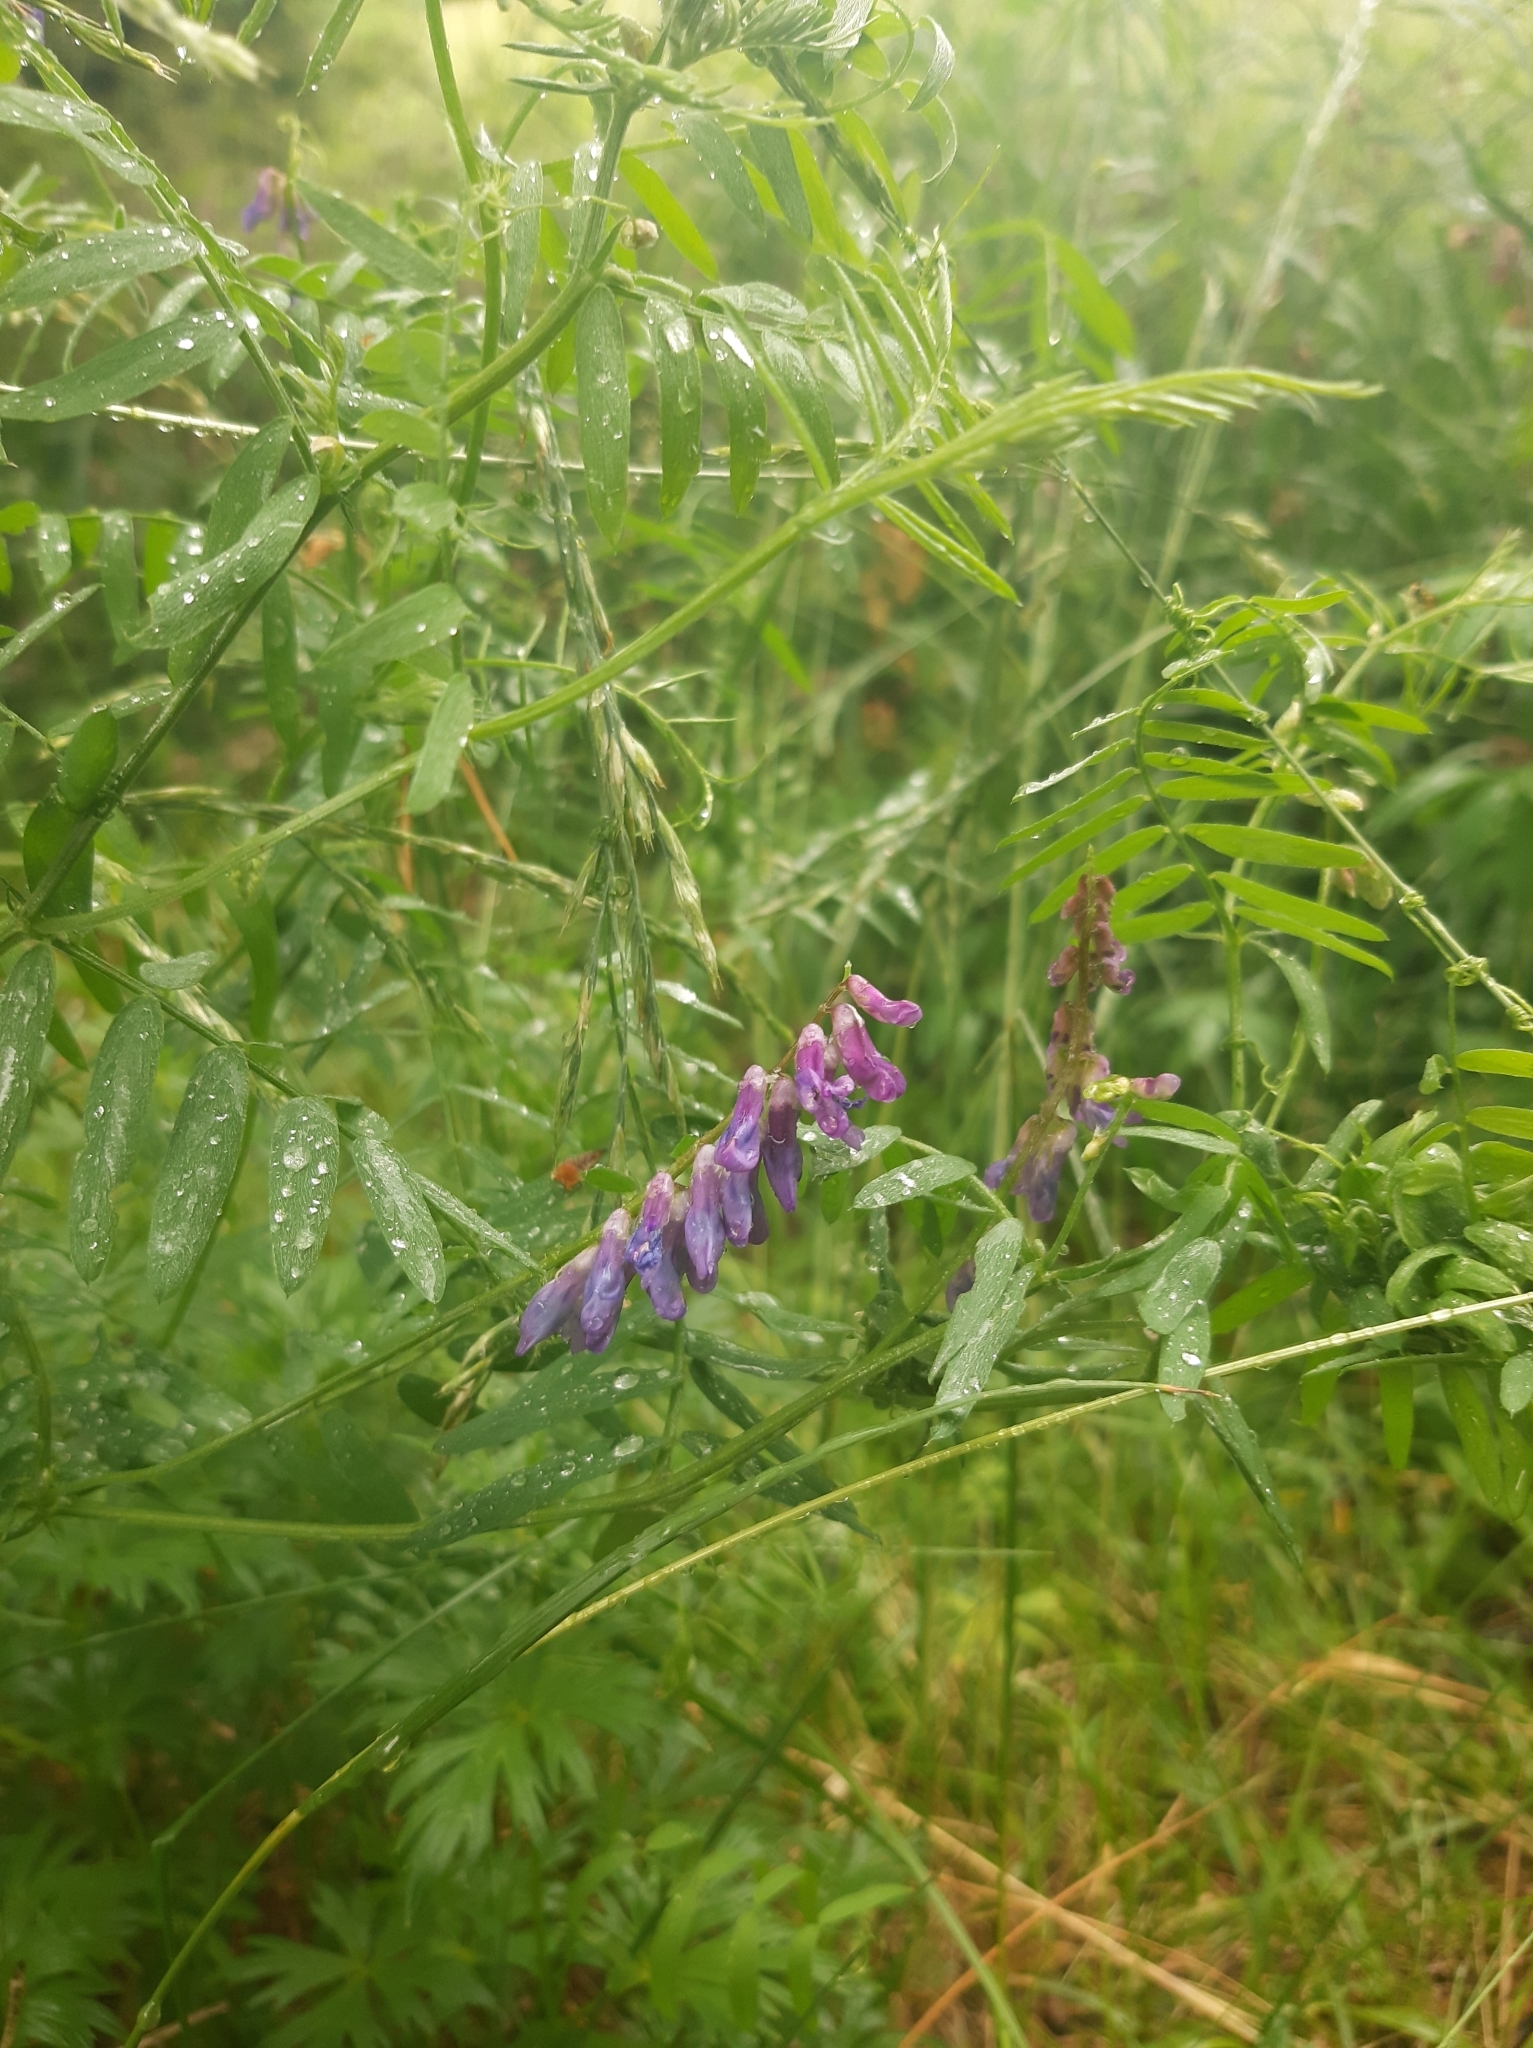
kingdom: Plantae
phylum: Tracheophyta
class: Magnoliopsida
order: Fabales
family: Fabaceae
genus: Vicia
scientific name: Vicia cracca
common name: Bird vetch
